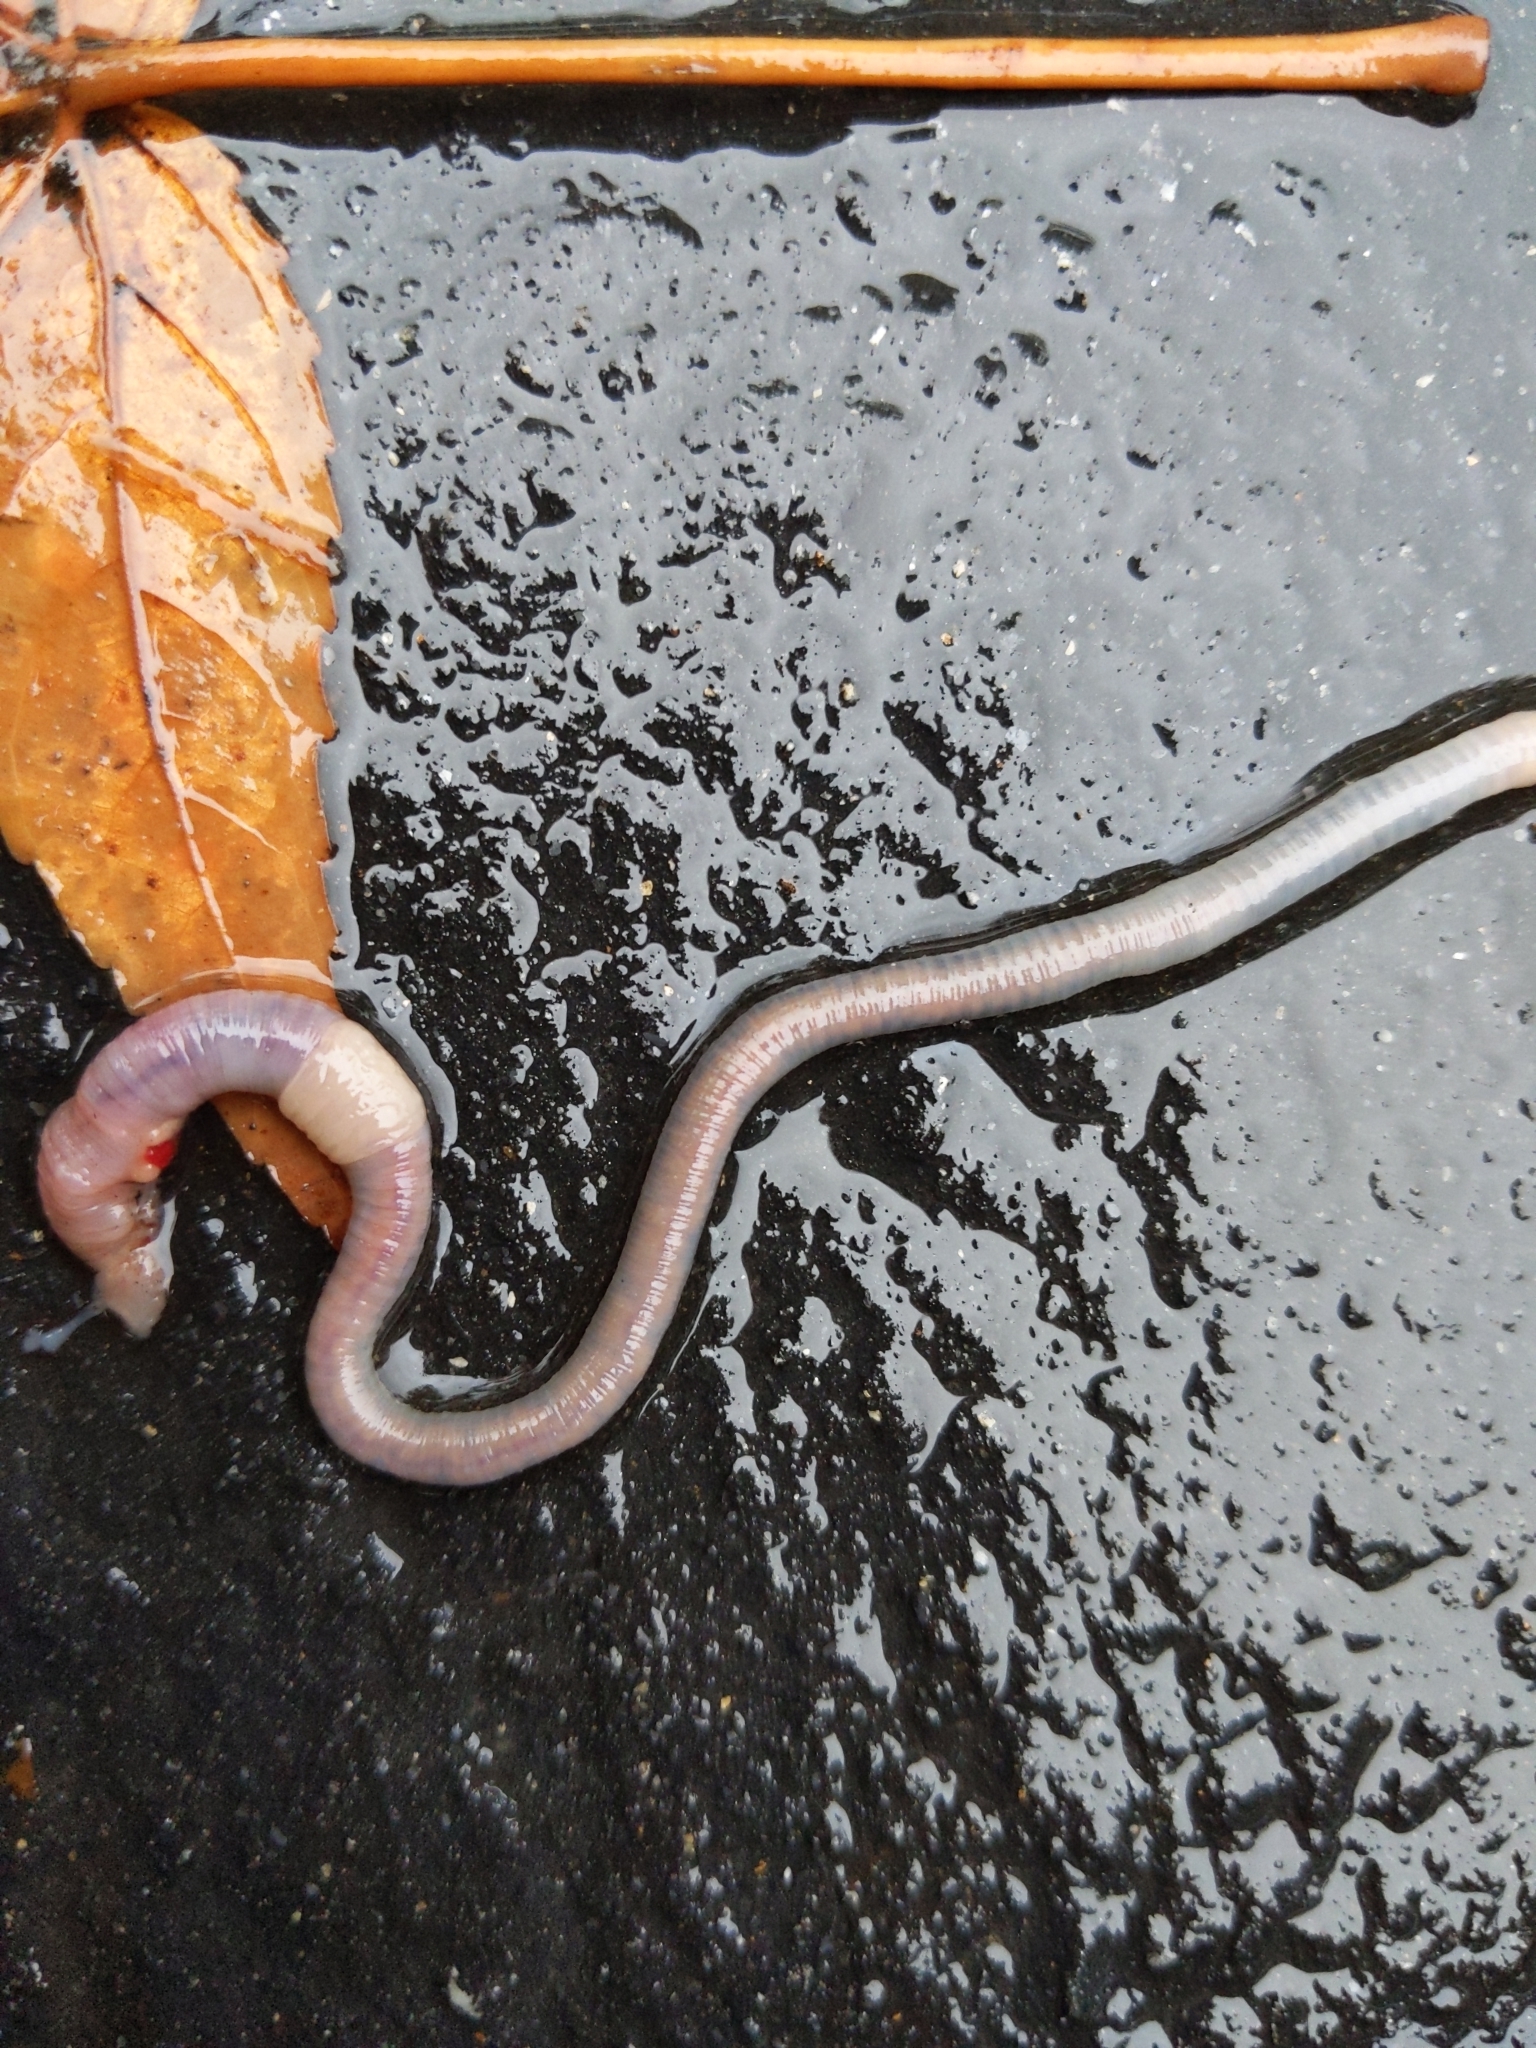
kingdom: Animalia
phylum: Annelida
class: Clitellata
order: Crassiclitellata
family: Lumbricidae
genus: Lumbricus
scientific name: Lumbricus terrestris
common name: Common earthworm
